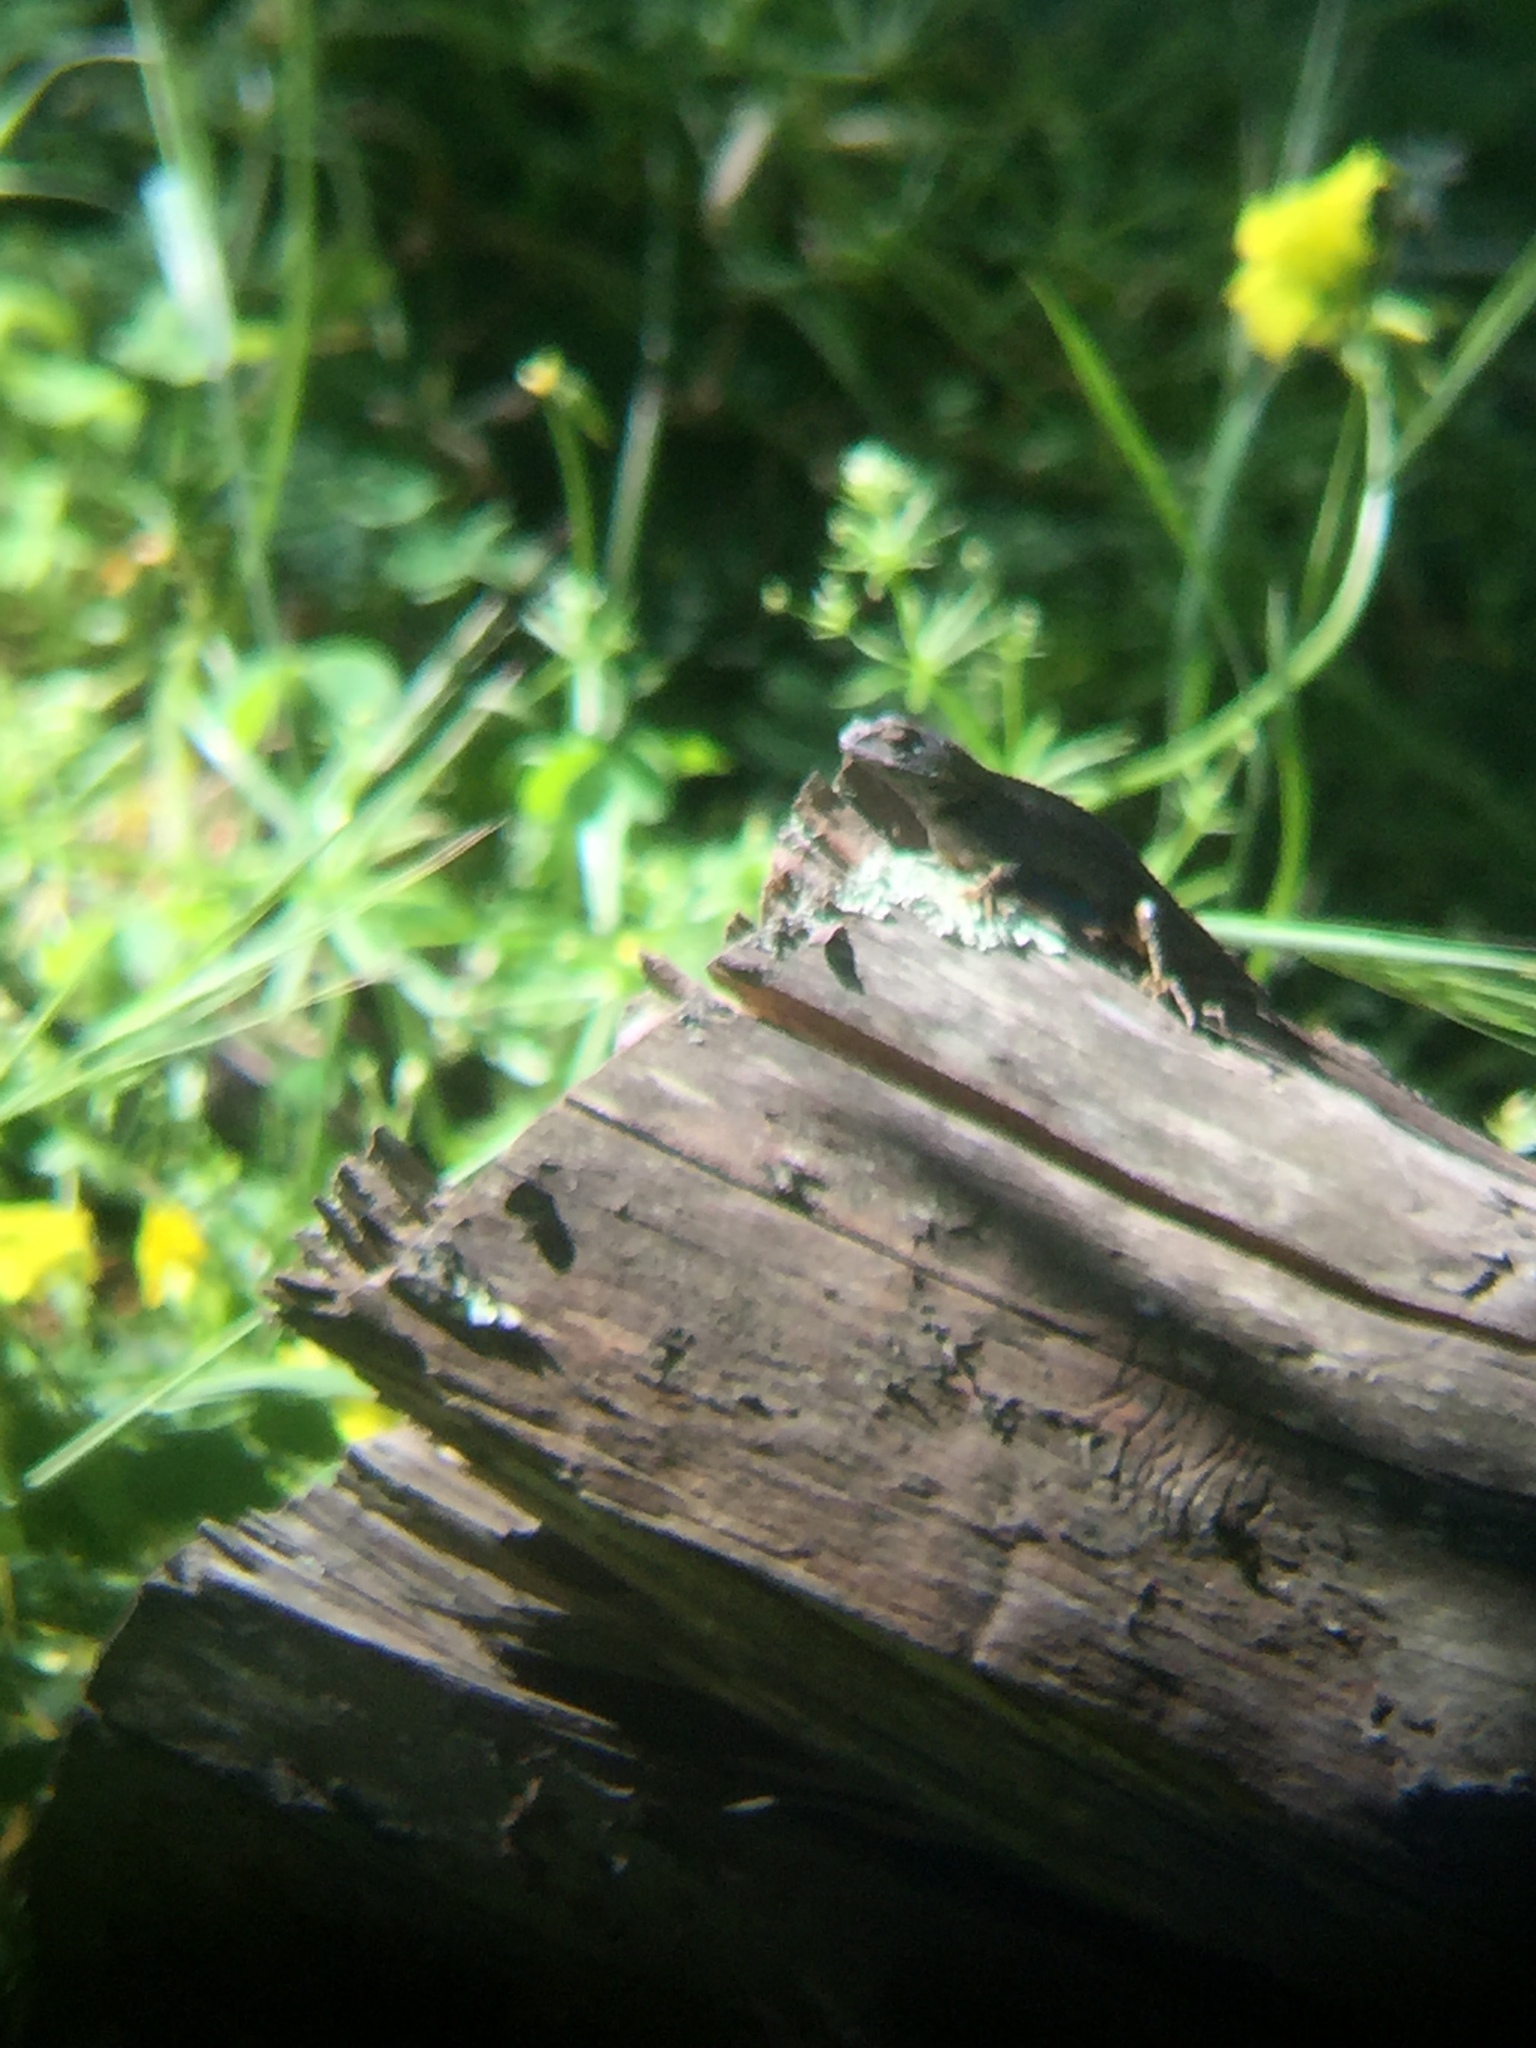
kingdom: Animalia
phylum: Chordata
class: Squamata
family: Phrynosomatidae
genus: Sceloporus
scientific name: Sceloporus occidentalis
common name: Western fence lizard
